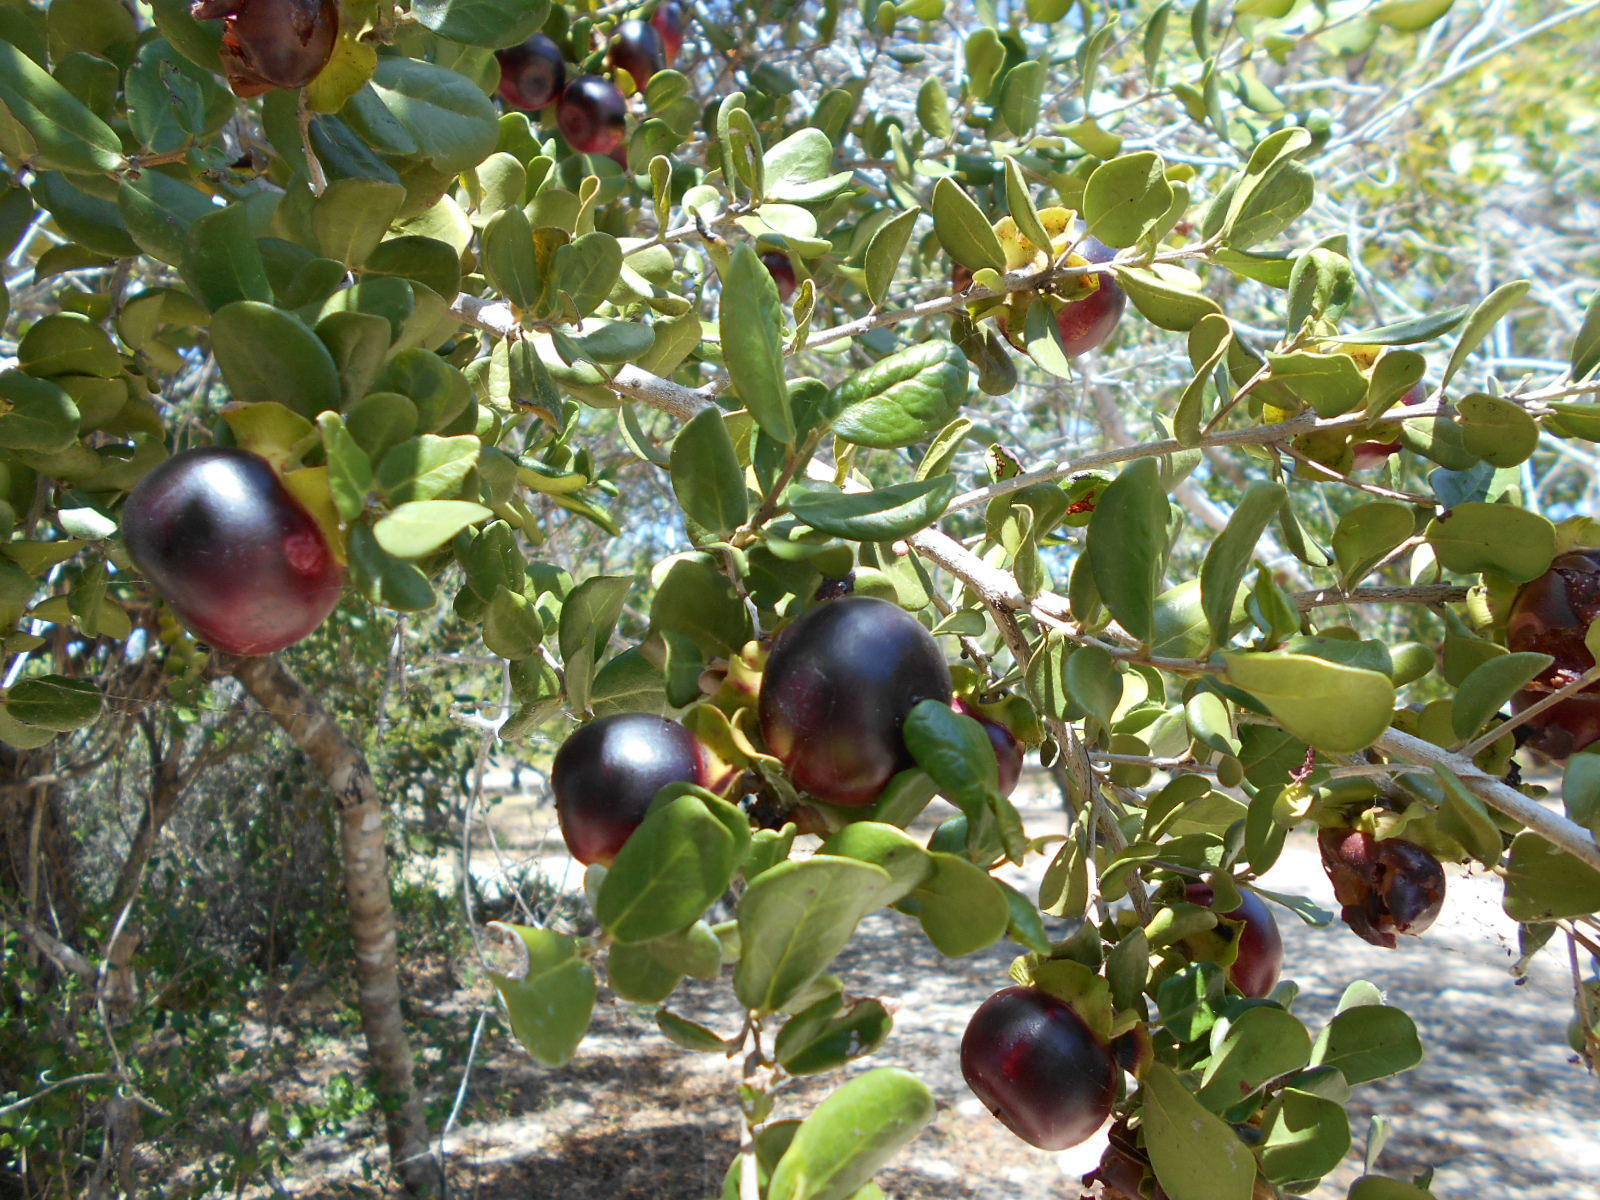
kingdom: Plantae
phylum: Tracheophyta
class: Magnoliopsida
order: Ericales
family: Ebenaceae
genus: Diospyros
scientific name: Diospyros rotundifolia
